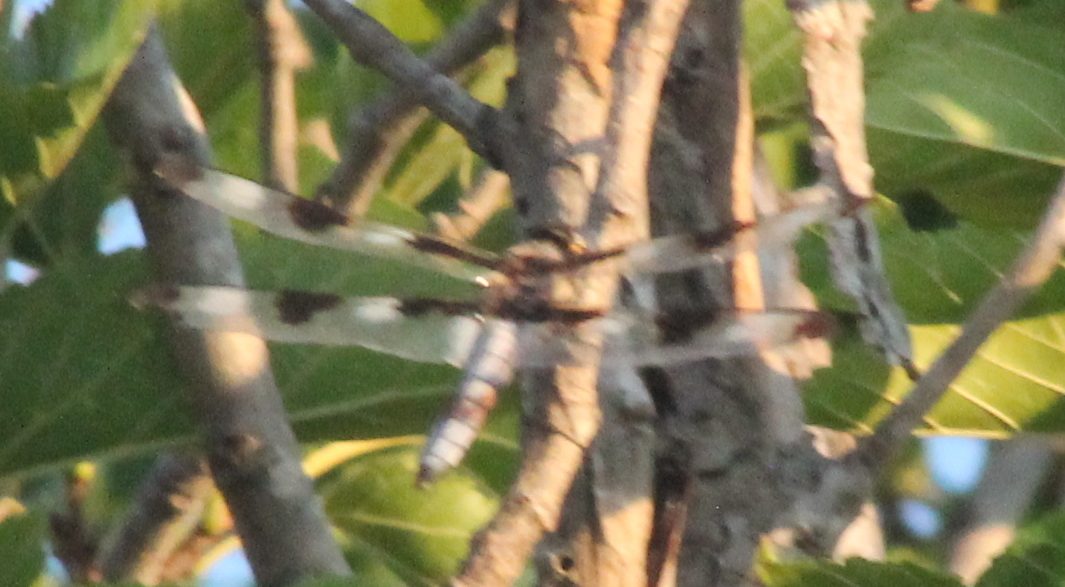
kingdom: Animalia
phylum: Arthropoda
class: Insecta
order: Odonata
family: Libellulidae
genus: Libellula
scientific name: Libellula pulchella
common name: Twelve-spotted skimmer
